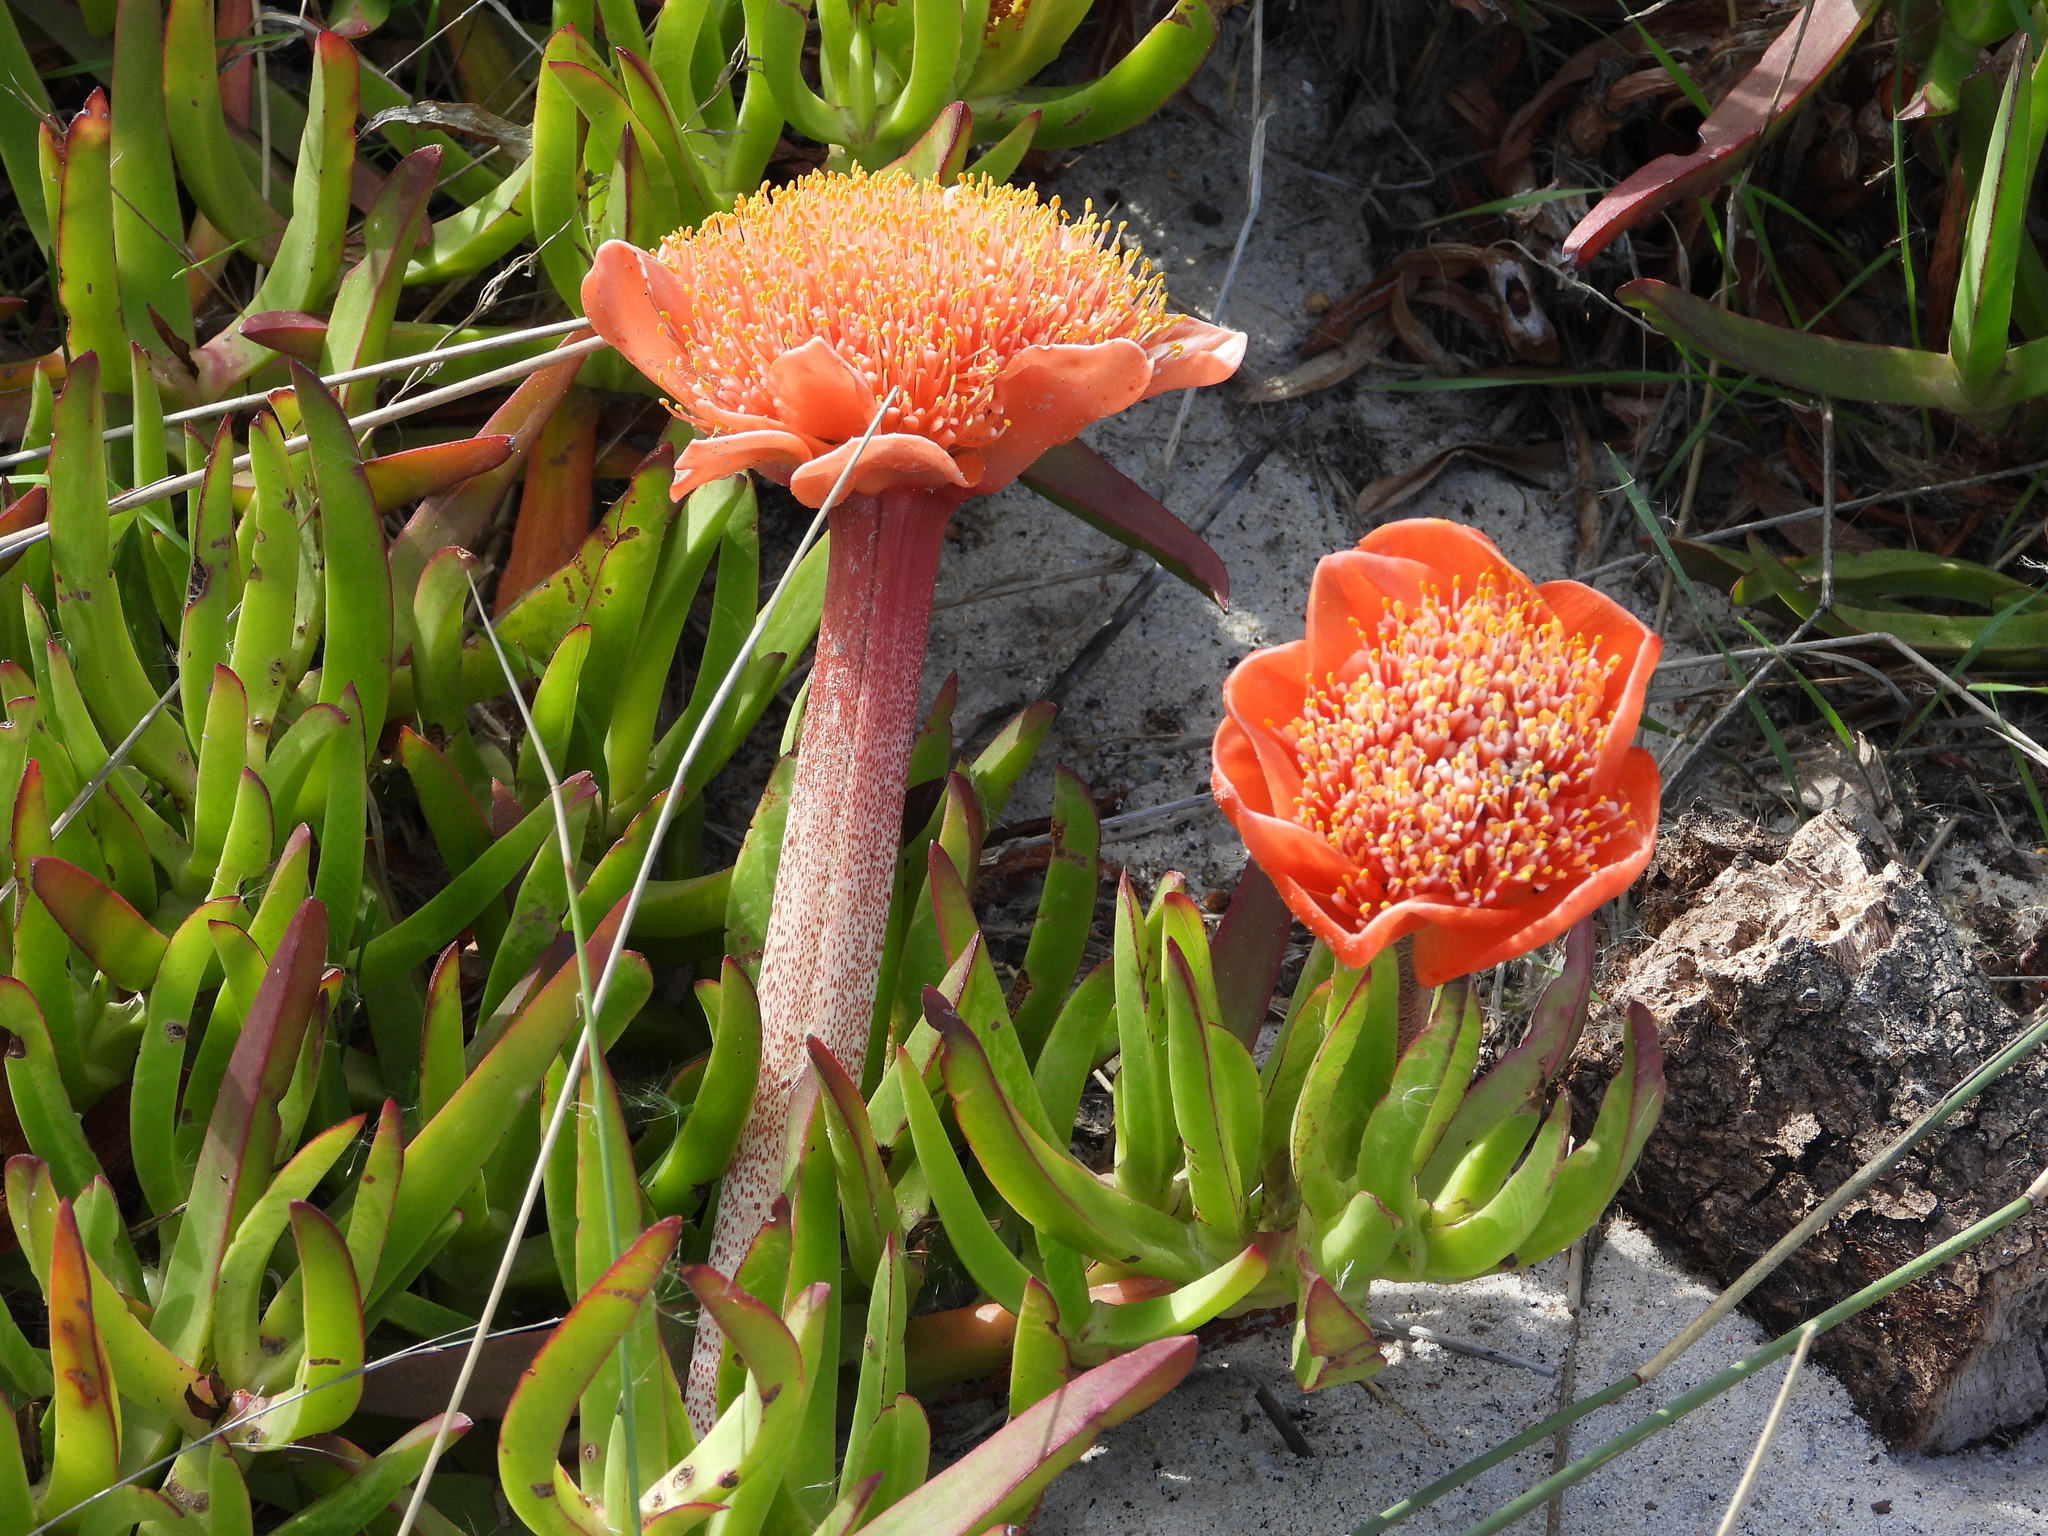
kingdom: Plantae
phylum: Tracheophyta
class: Liliopsida
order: Asparagales
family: Amaryllidaceae
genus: Haemanthus
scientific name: Haemanthus coccineus
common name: Cape-tulip
